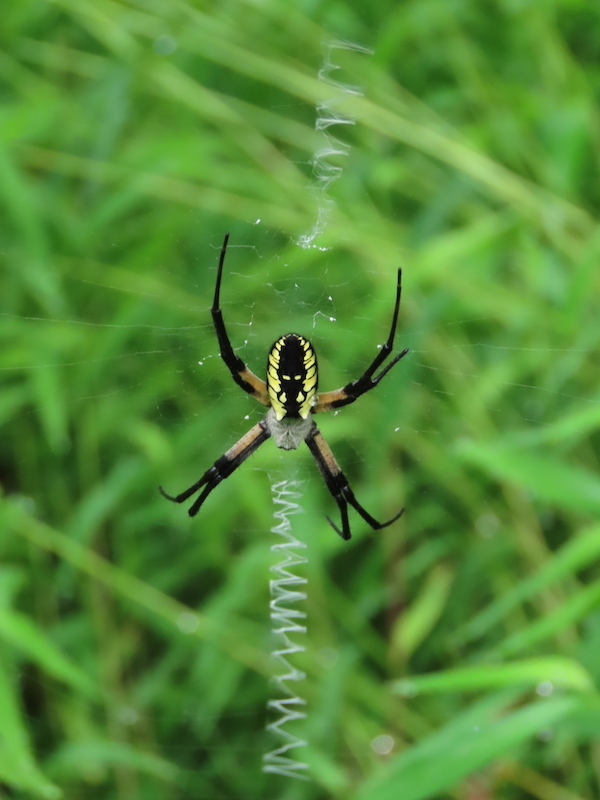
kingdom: Animalia
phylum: Arthropoda
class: Arachnida
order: Araneae
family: Araneidae
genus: Argiope
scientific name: Argiope aurantia
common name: Orb weavers
